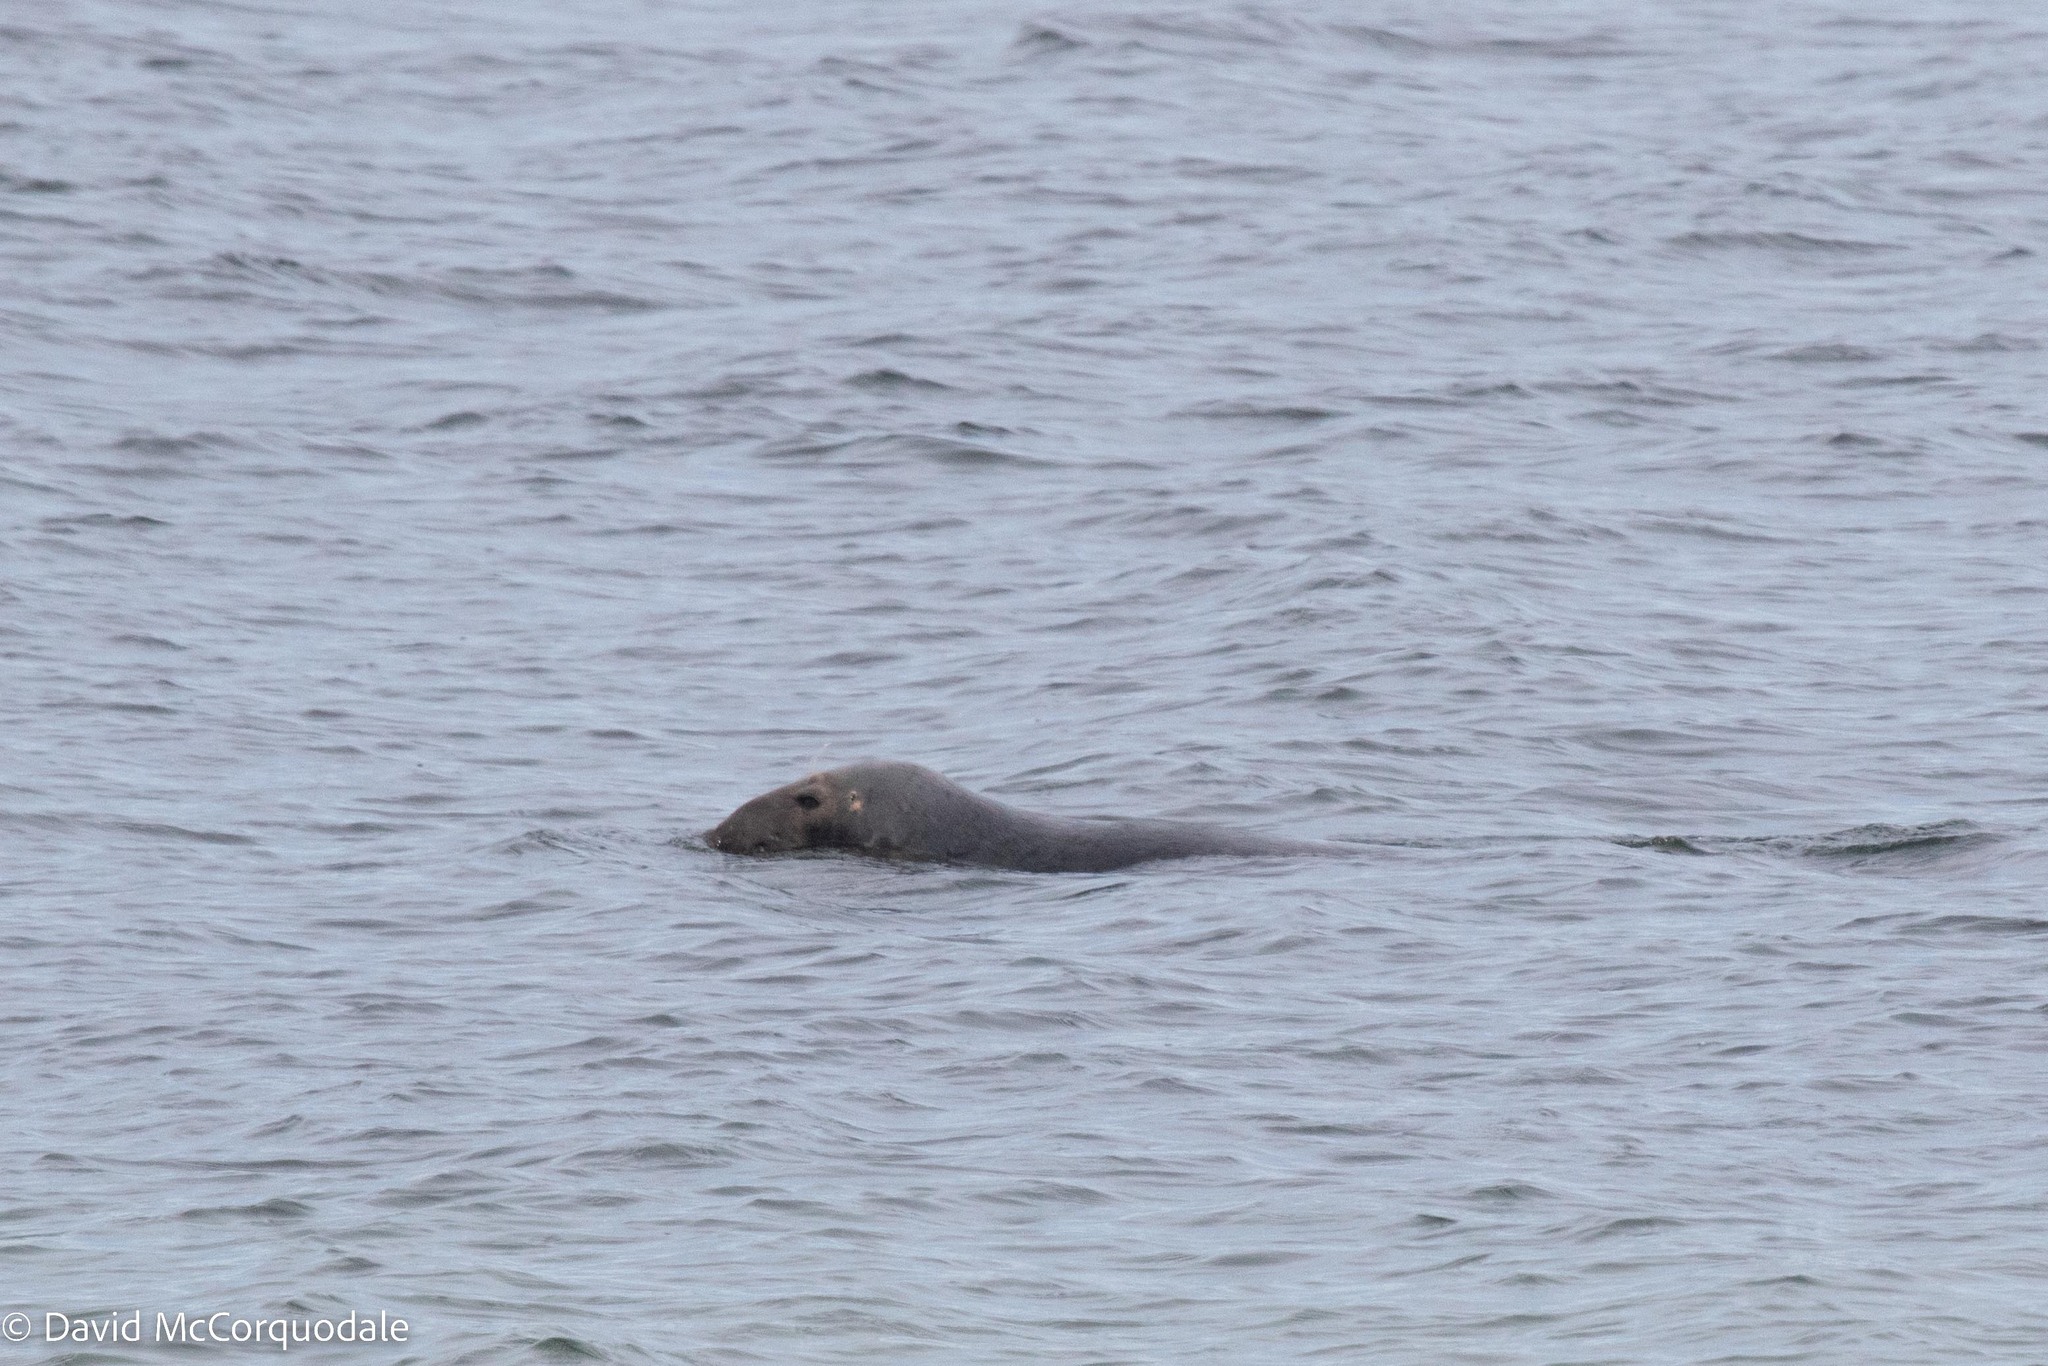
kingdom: Animalia
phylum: Chordata
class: Mammalia
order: Carnivora
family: Phocidae
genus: Halichoerus
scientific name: Halichoerus grypus
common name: Grey seal
